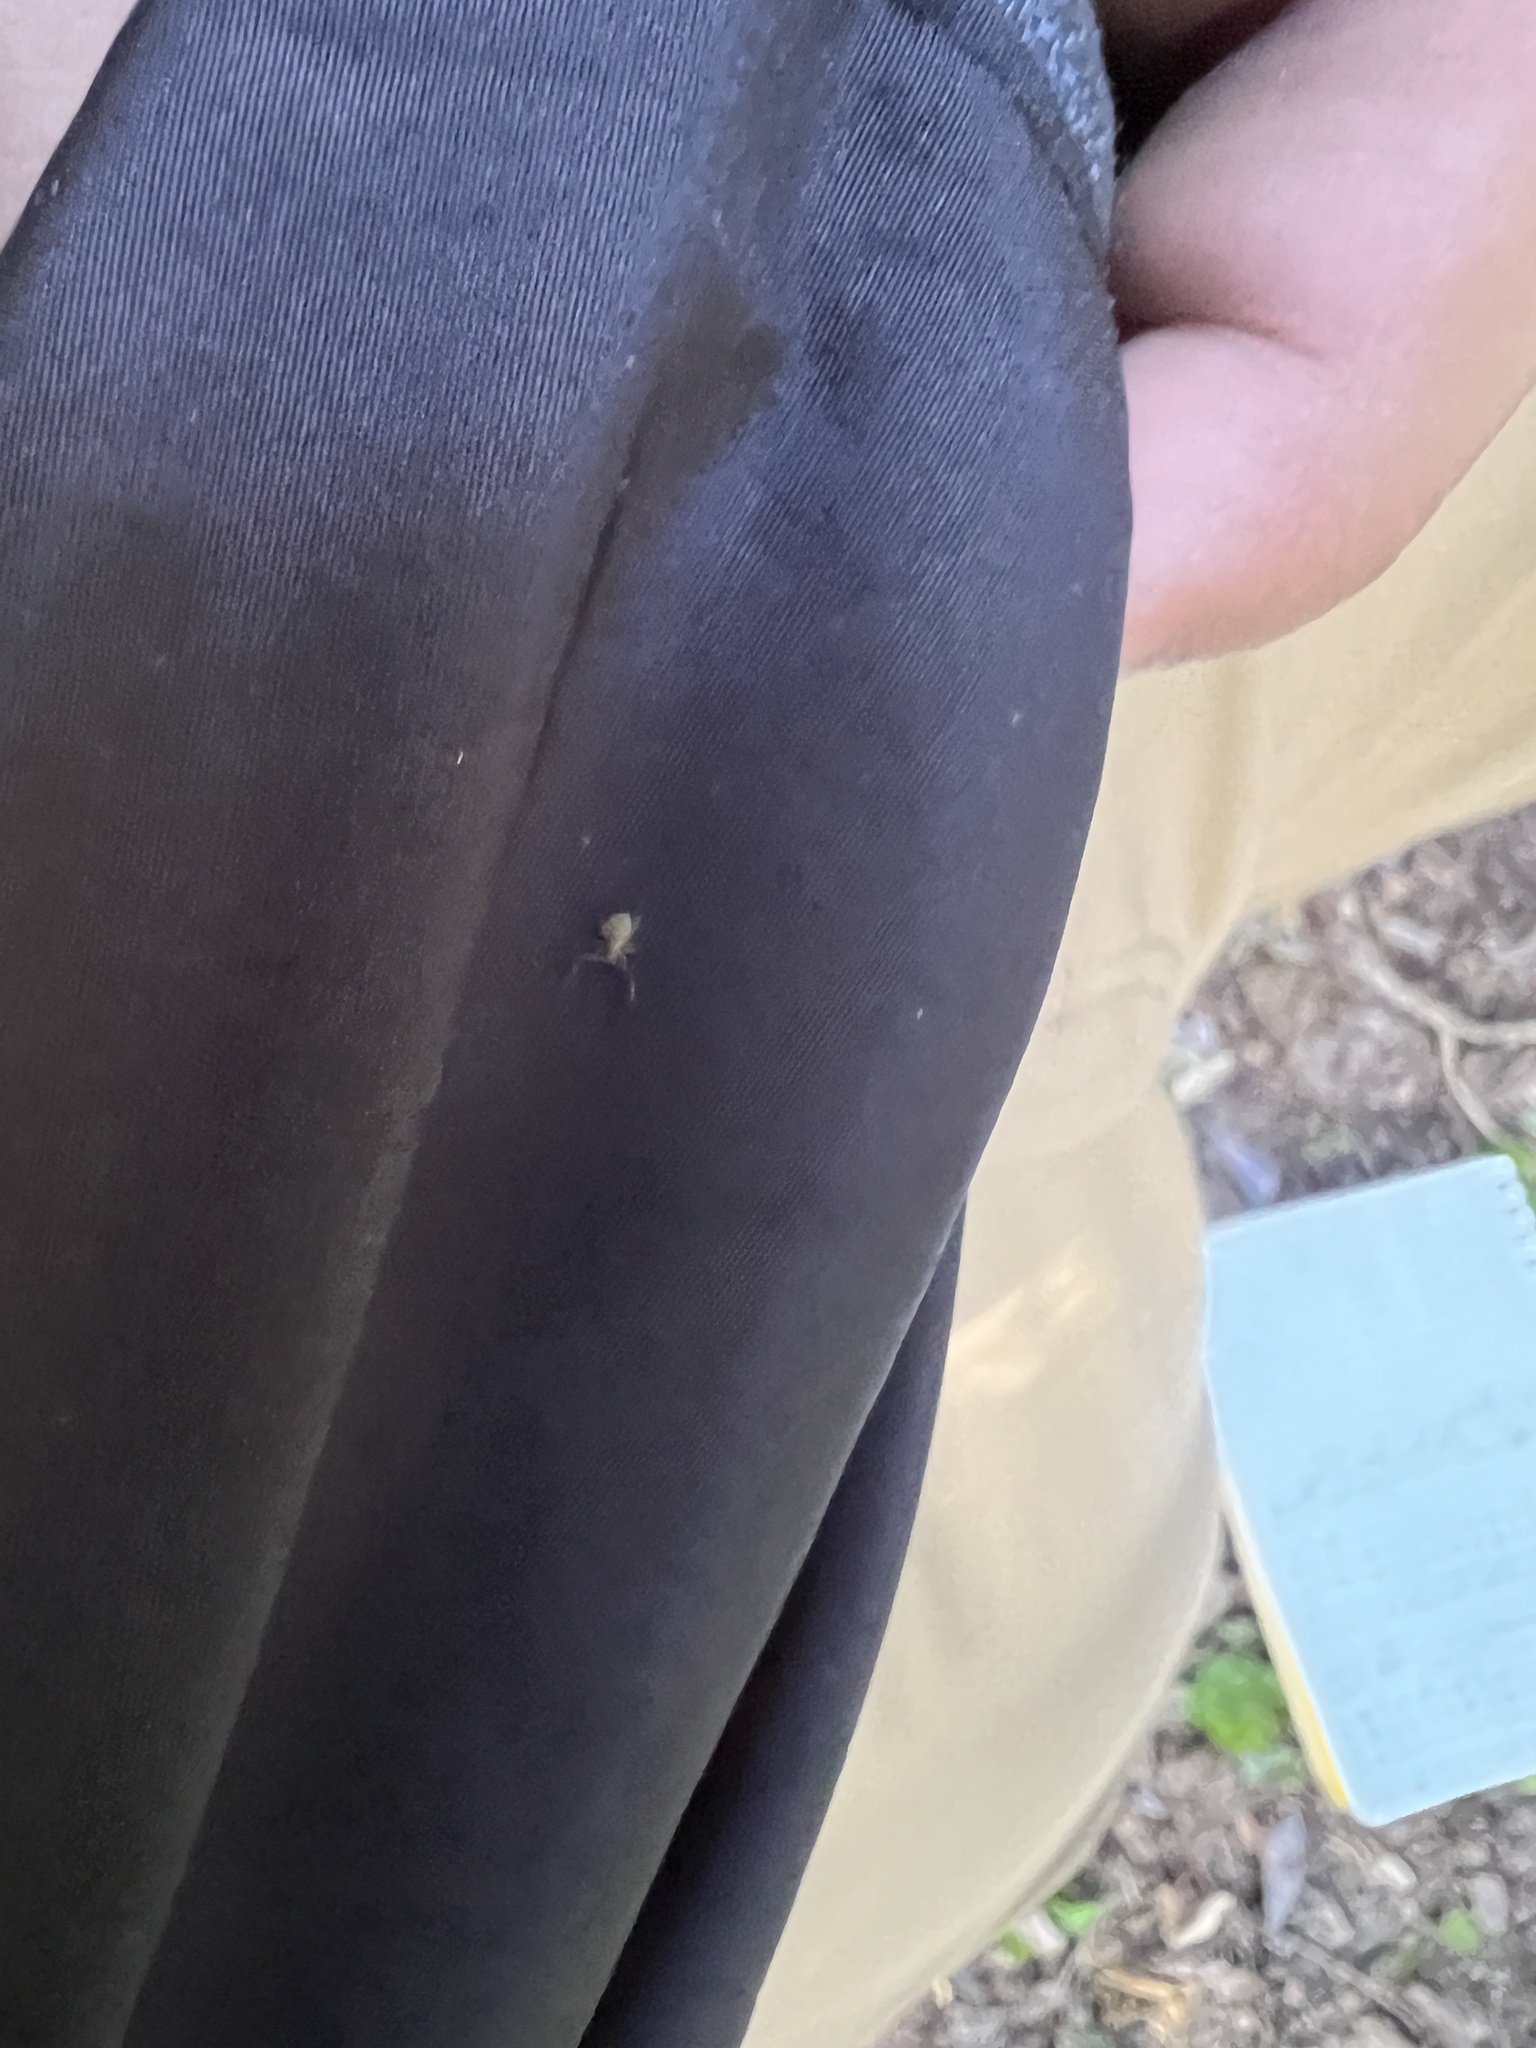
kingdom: Animalia
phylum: Arthropoda
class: Arachnida
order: Pseudoscorpiones
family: Cheliferidae
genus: Chelifer
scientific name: Chelifer cancroides
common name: House false-scorpion
